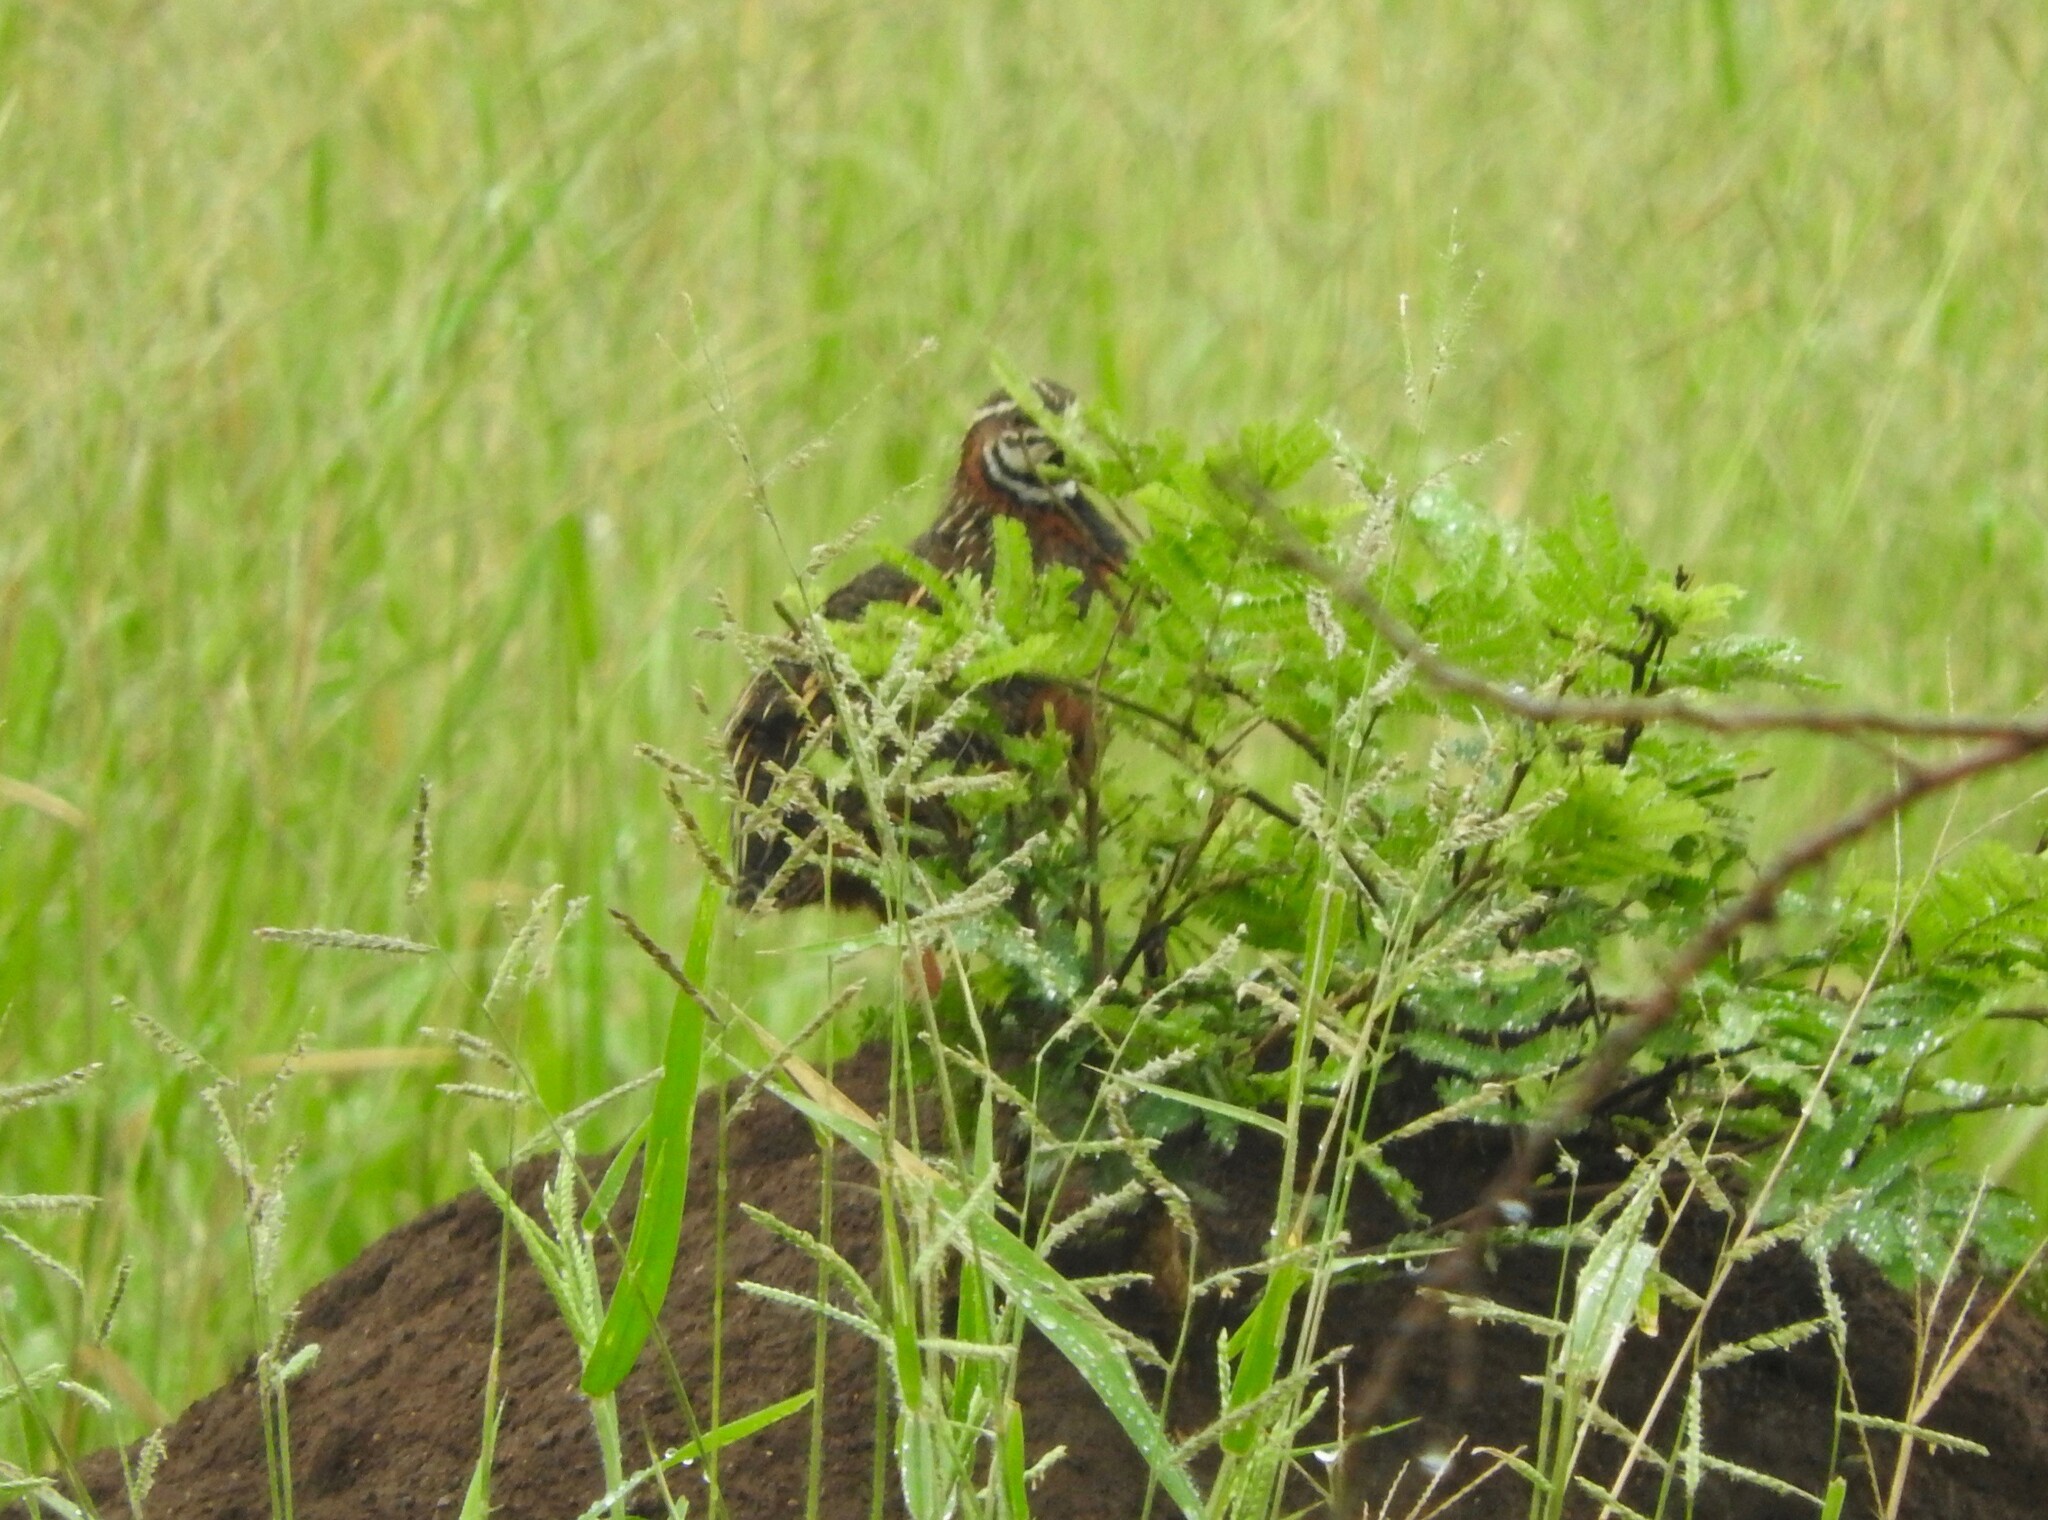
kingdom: Animalia
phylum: Chordata
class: Aves
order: Galliformes
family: Phasianidae
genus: Coturnix
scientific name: Coturnix delegorguei
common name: Harlequin quail
